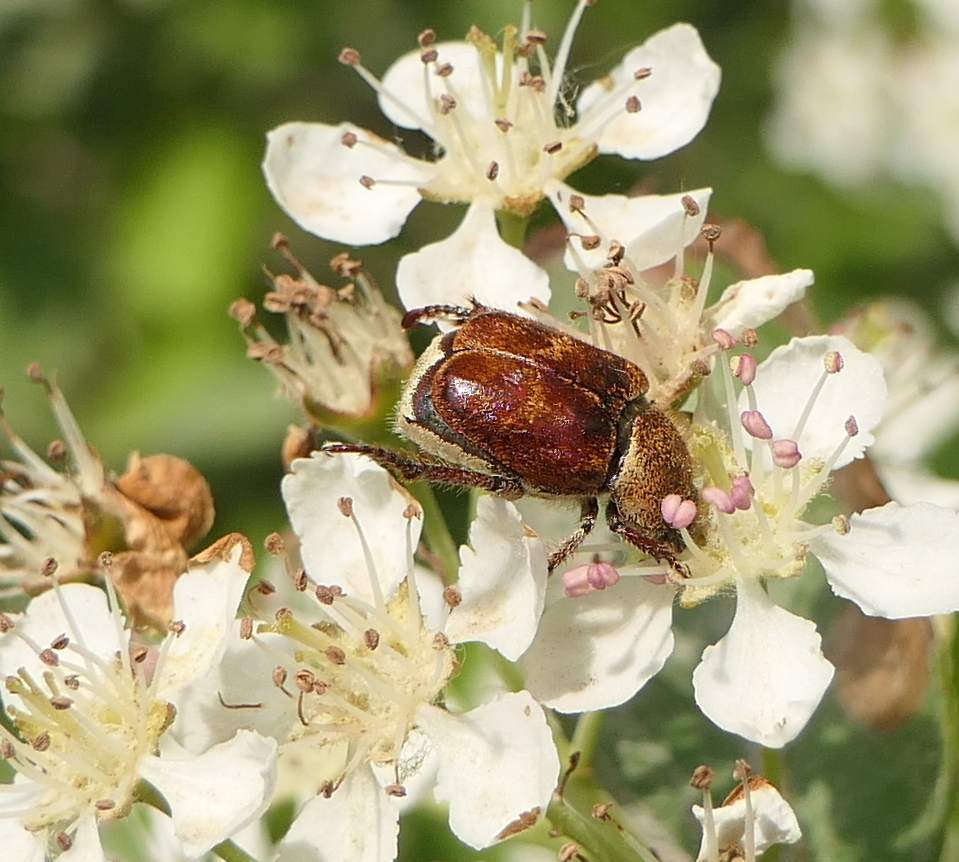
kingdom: Animalia
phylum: Arthropoda
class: Insecta
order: Coleoptera
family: Scarabaeidae
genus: Hoplia
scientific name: Hoplia trifasciata
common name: Three-lined hoplia
